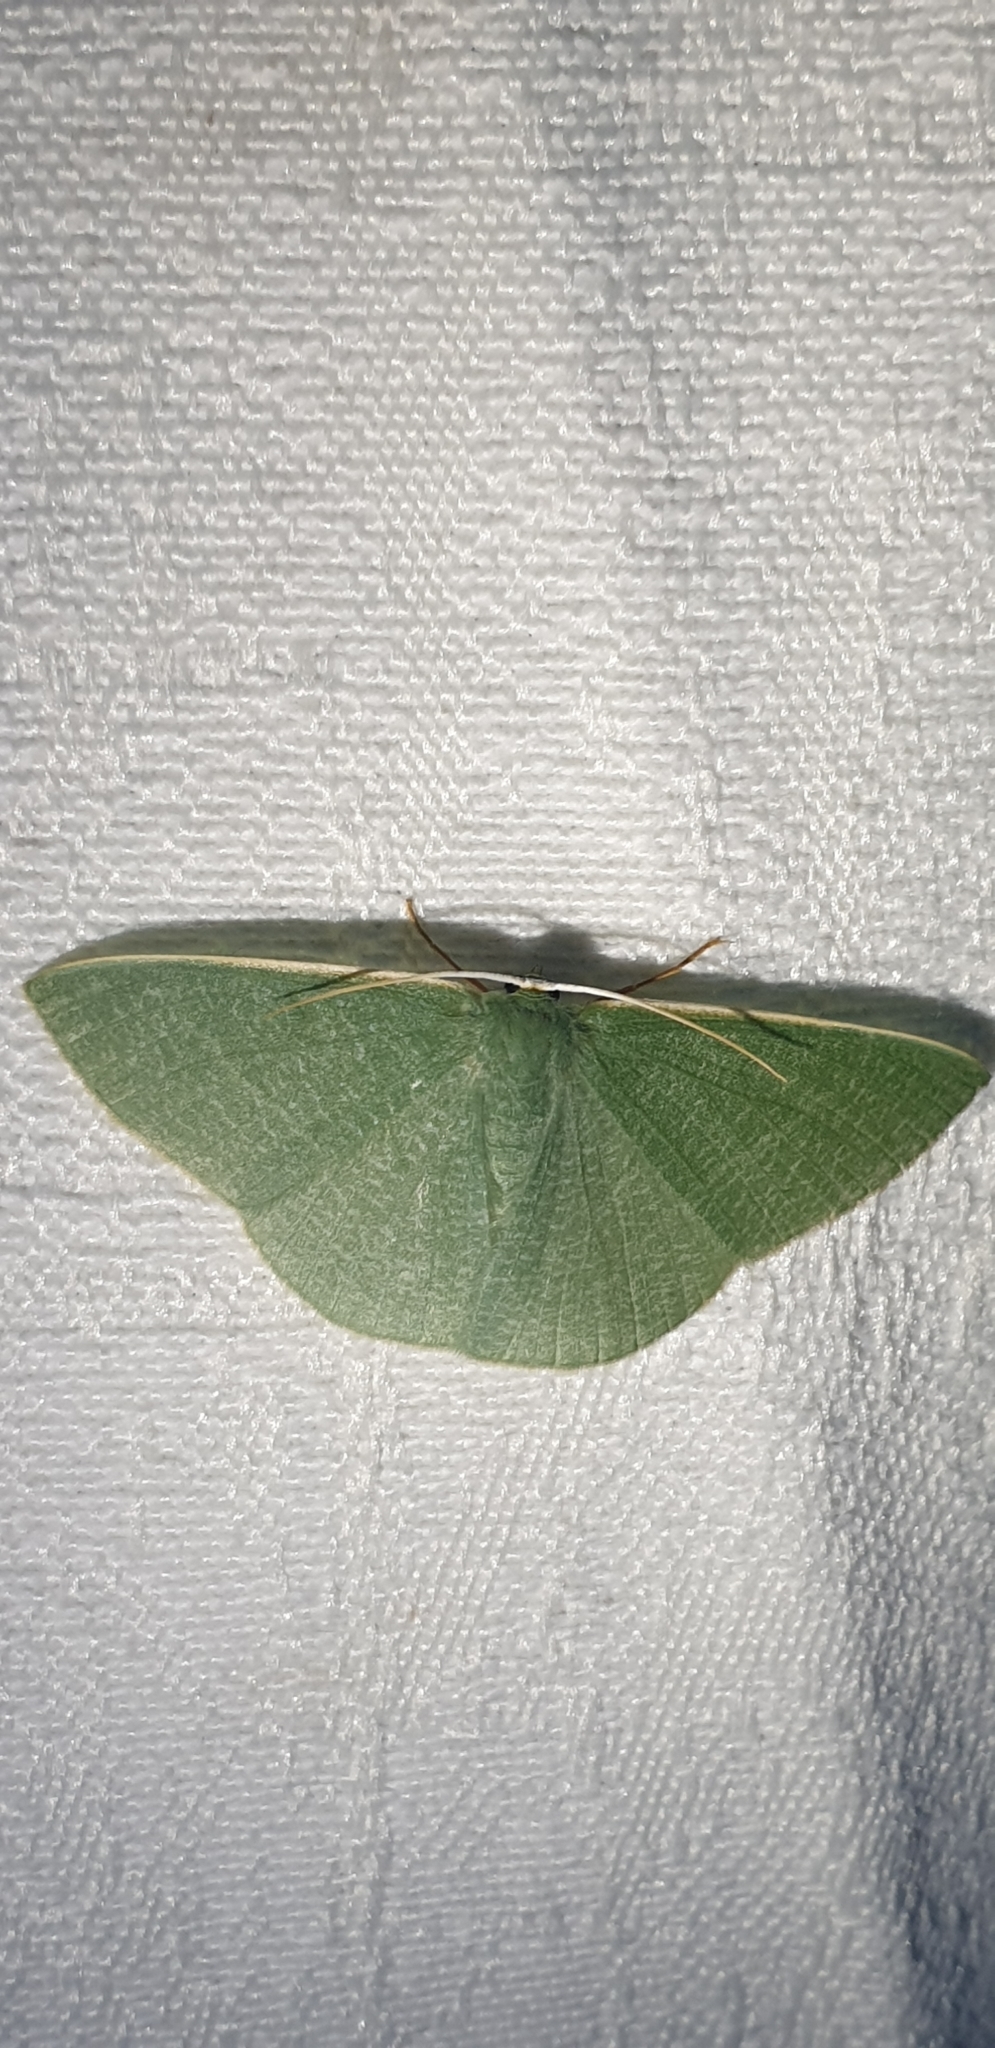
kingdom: Animalia
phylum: Arthropoda
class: Insecta
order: Lepidoptera
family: Geometridae
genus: Prasinocyma
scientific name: Prasinocyma albicosta
